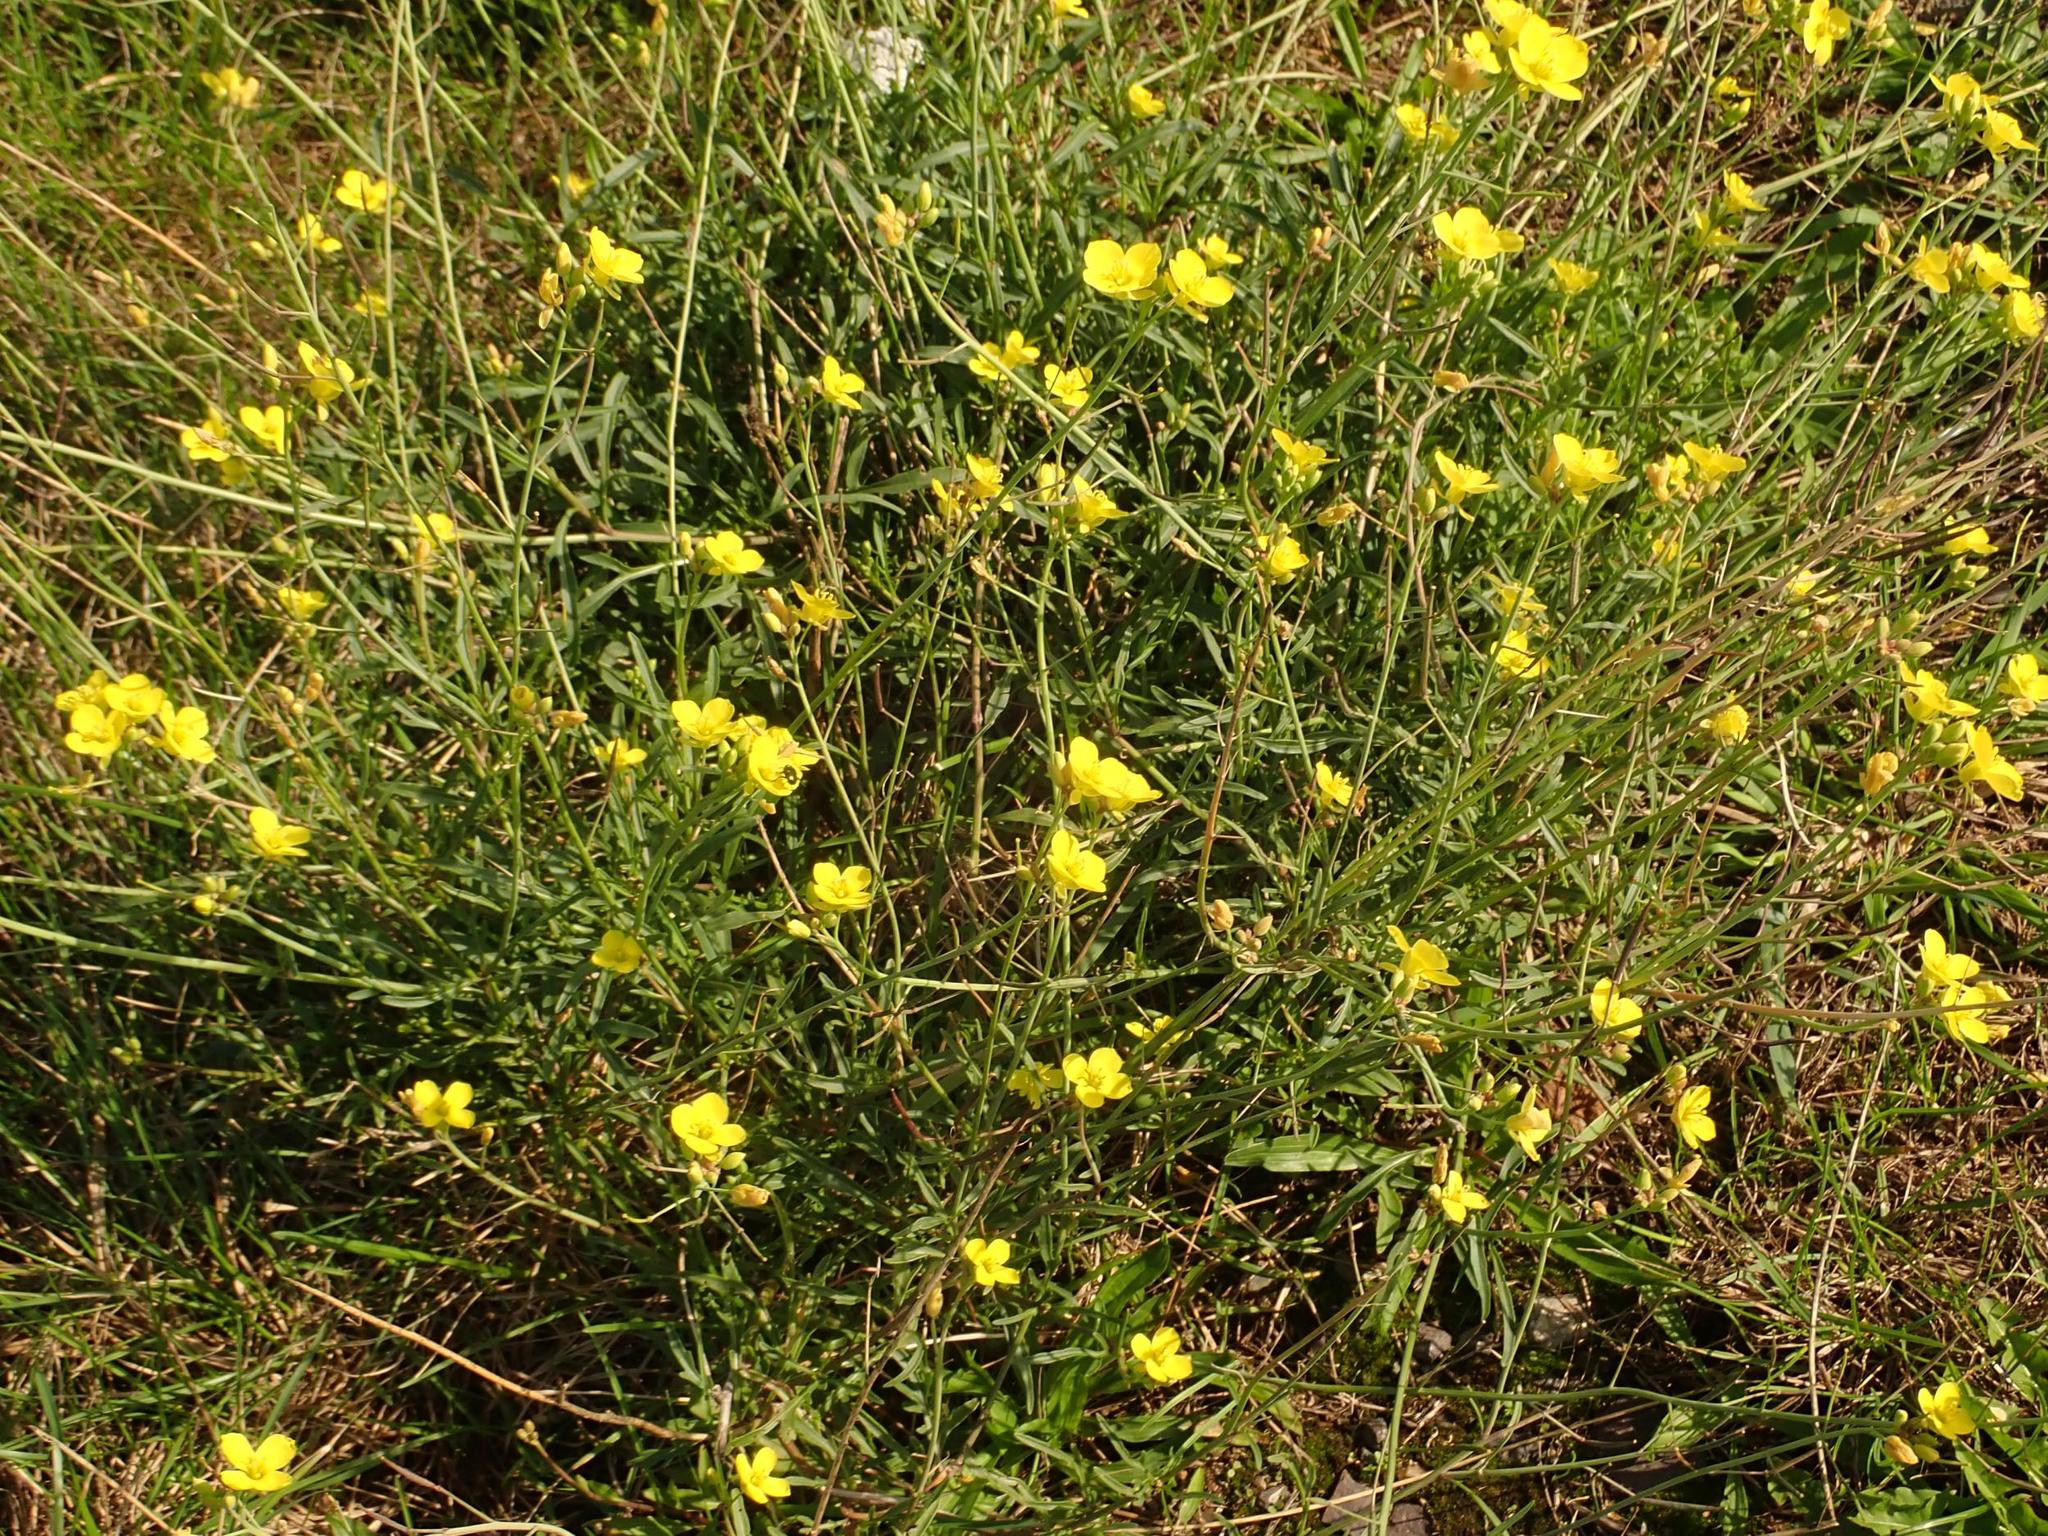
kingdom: Plantae
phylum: Tracheophyta
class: Magnoliopsida
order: Brassicales
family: Brassicaceae
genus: Diplotaxis
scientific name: Diplotaxis tenuifolia
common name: Perennial wall-rocket
